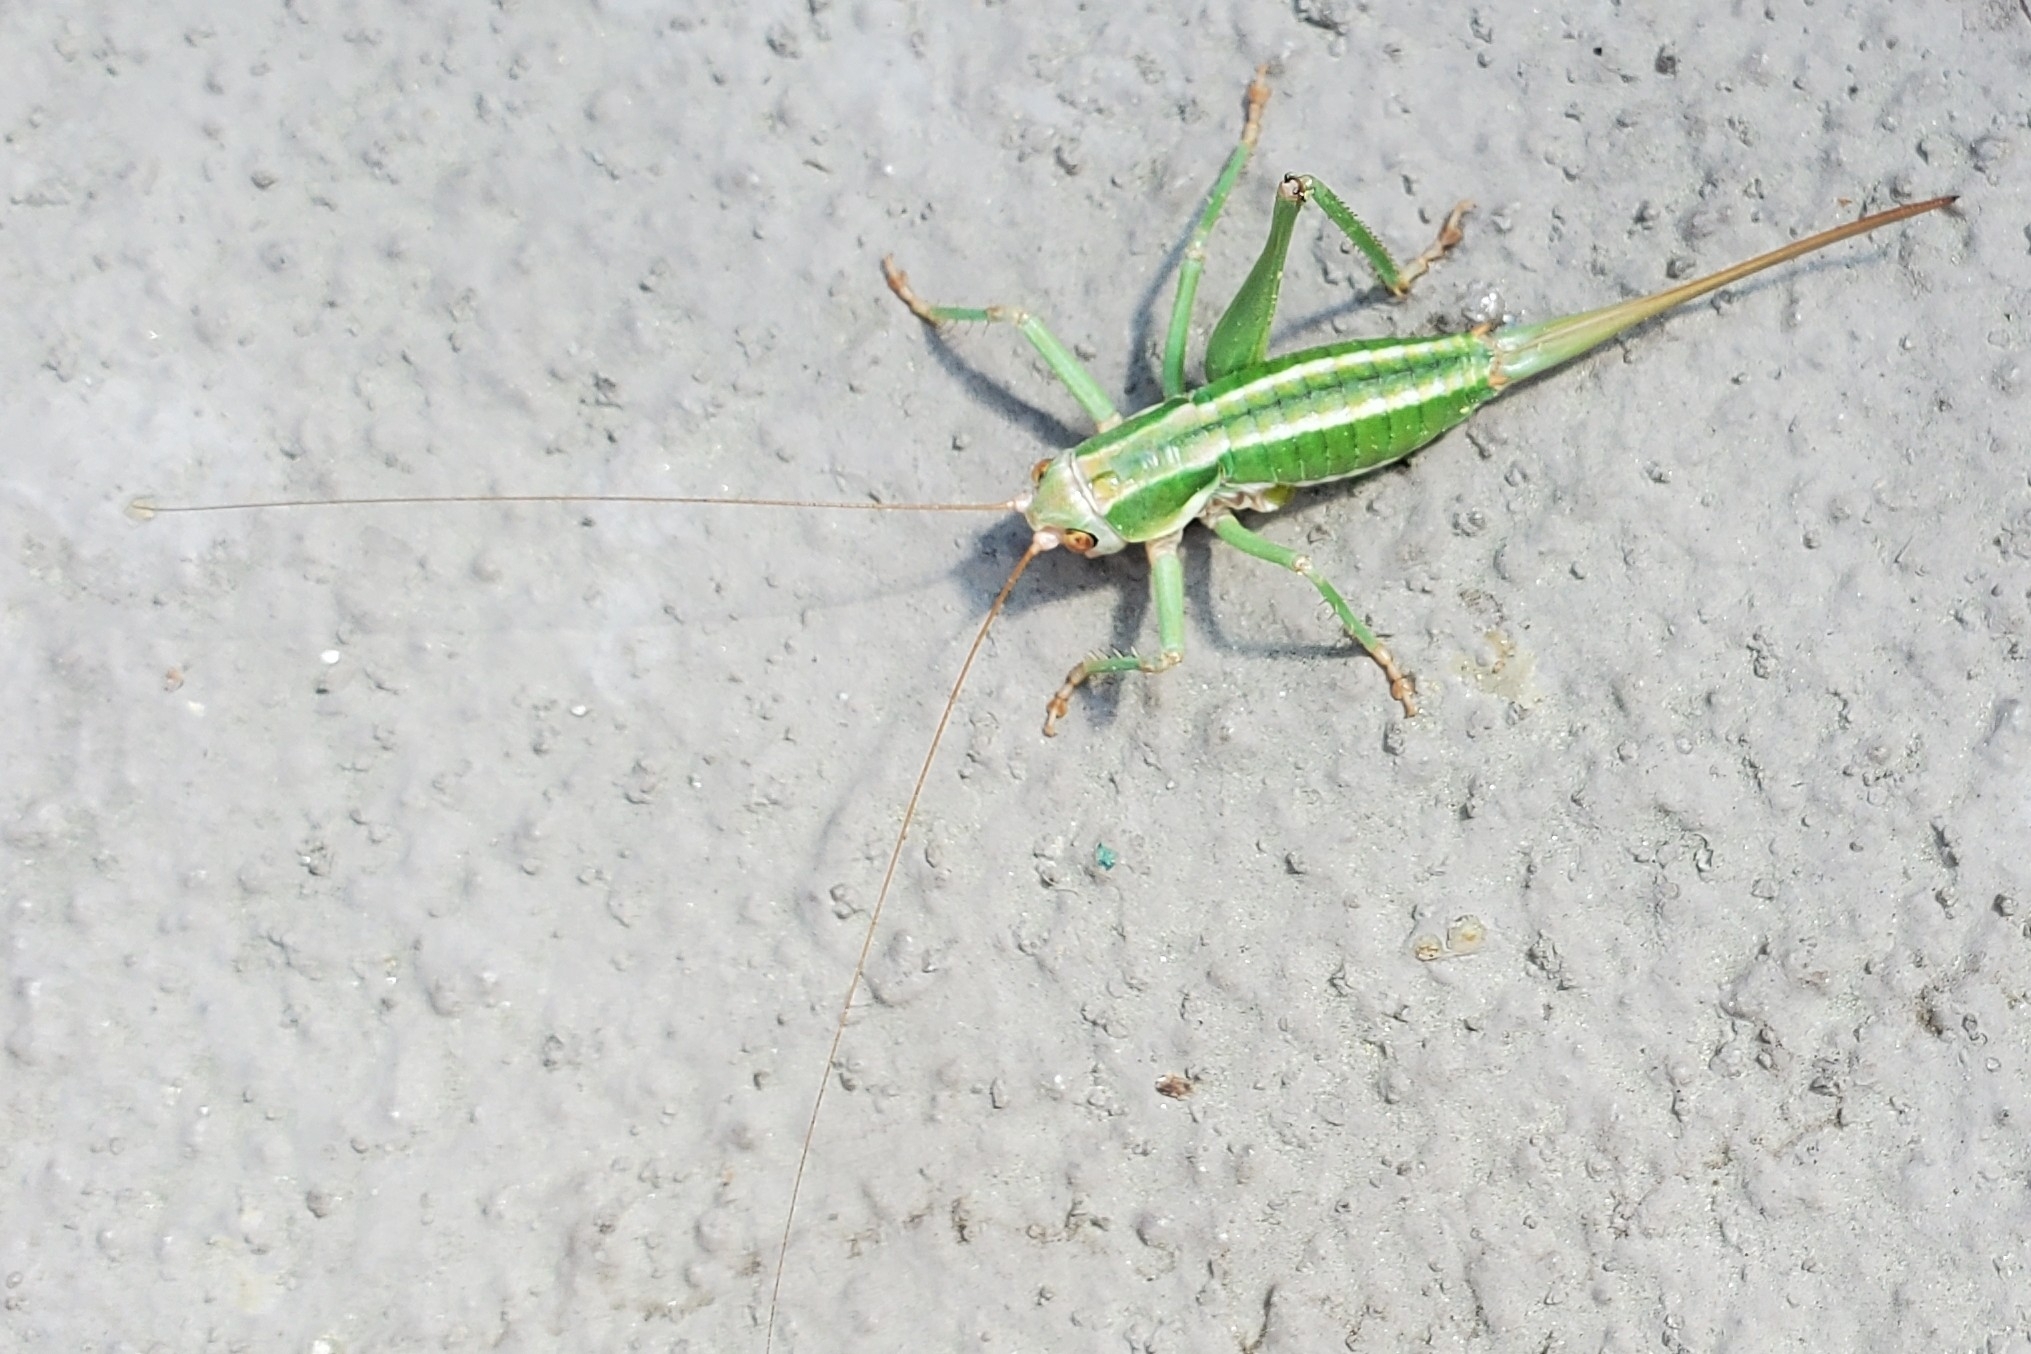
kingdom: Animalia
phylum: Arthropoda
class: Insecta
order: Orthoptera
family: Tettigoniidae
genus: Idiostatus
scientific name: Idiostatus viridis
